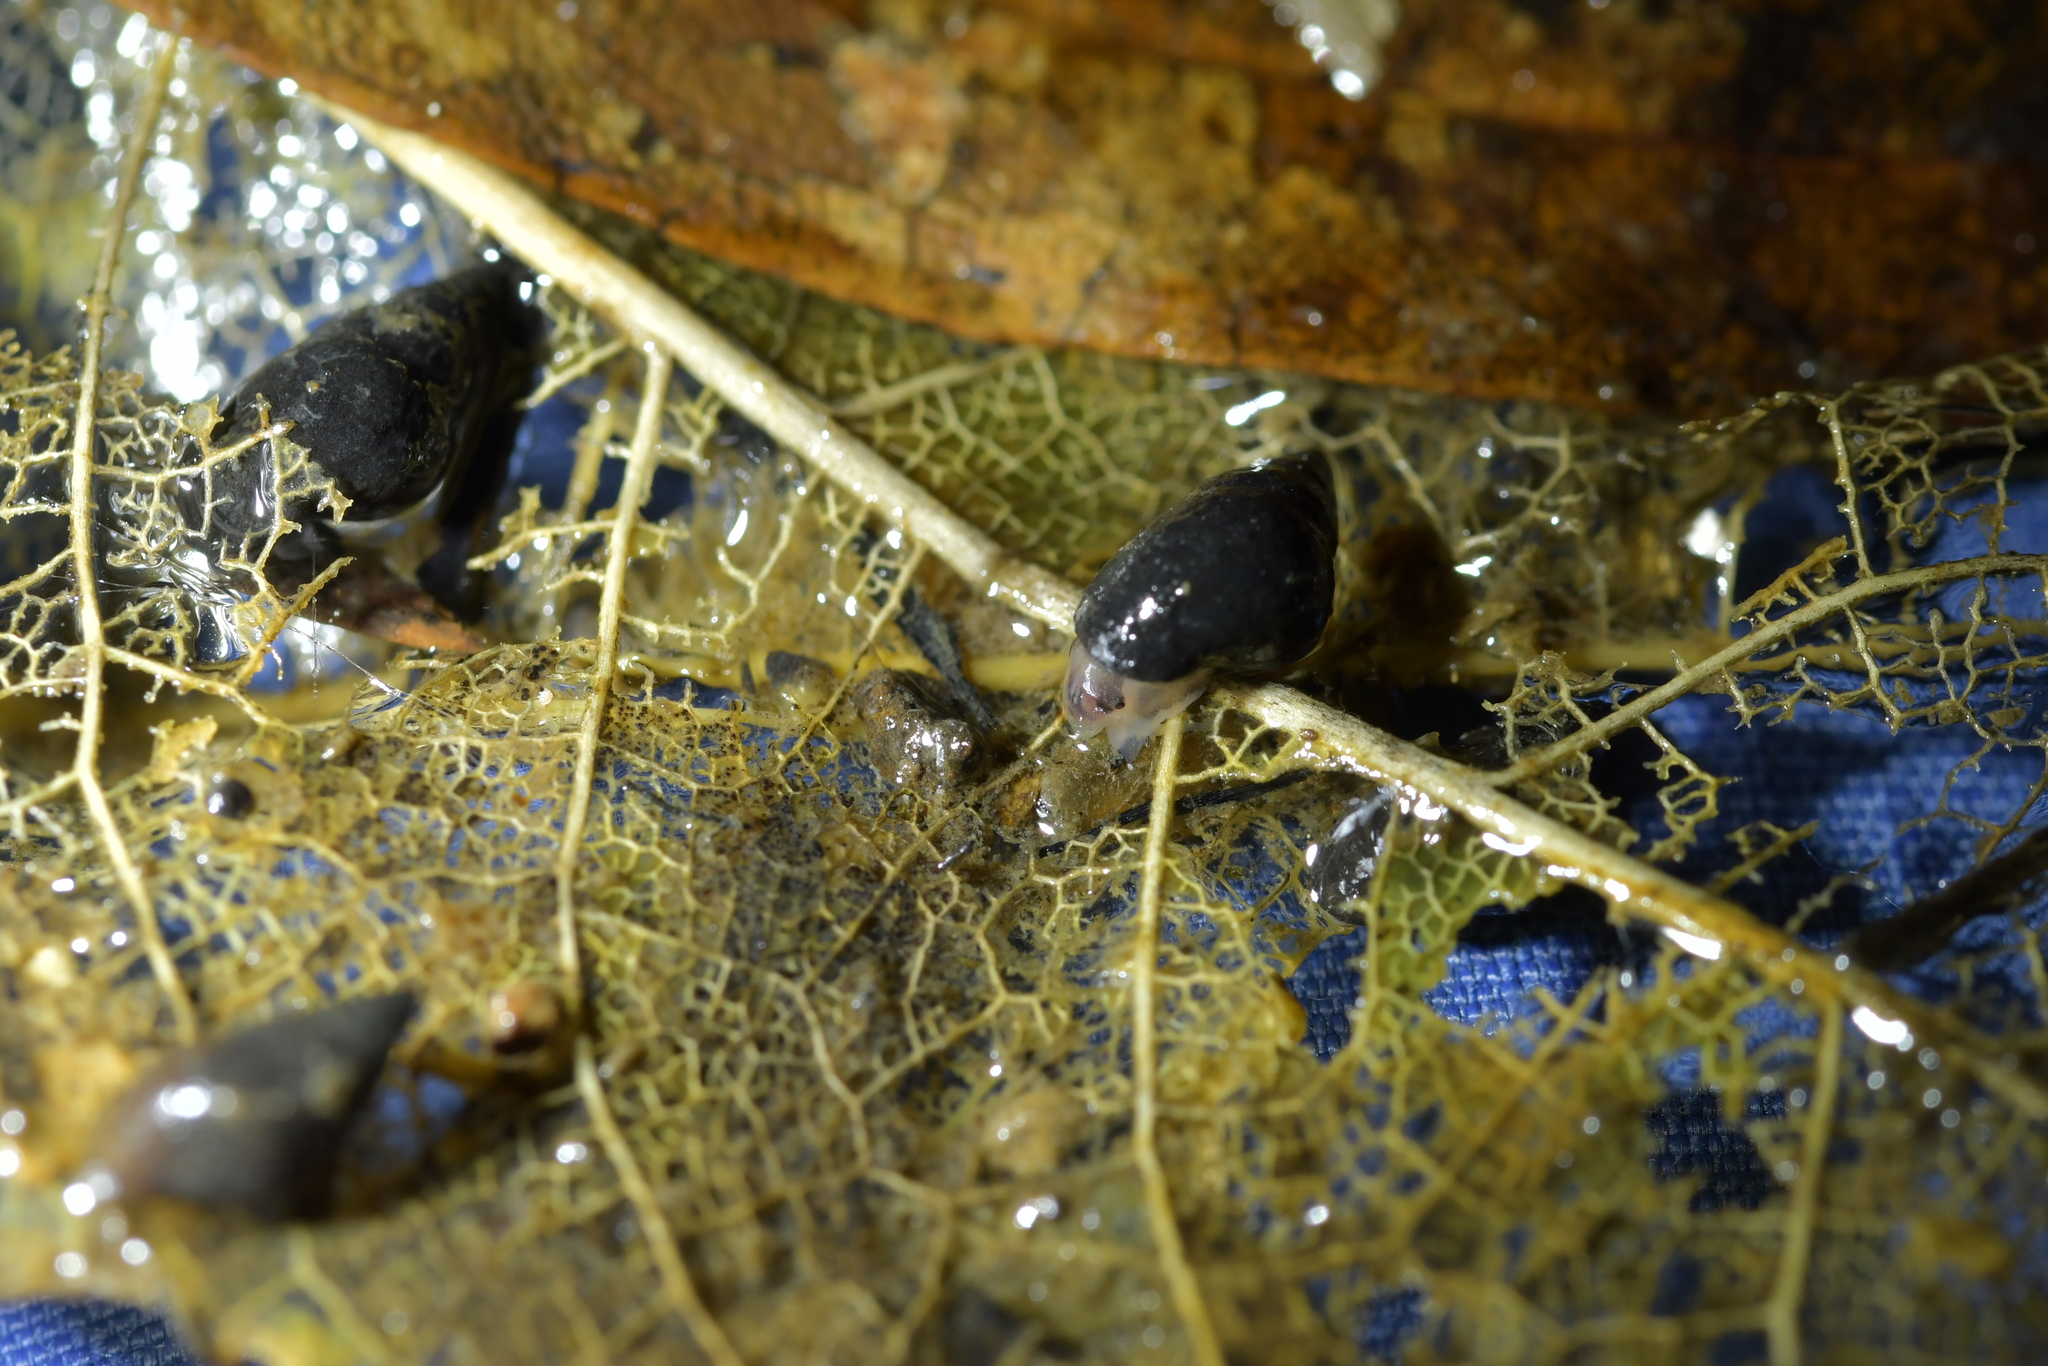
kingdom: Animalia
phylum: Mollusca
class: Gastropoda
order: Littorinimorpha
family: Tateidae
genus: Potamopyrgus
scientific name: Potamopyrgus antipodarum
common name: Jenkins' spire snail
